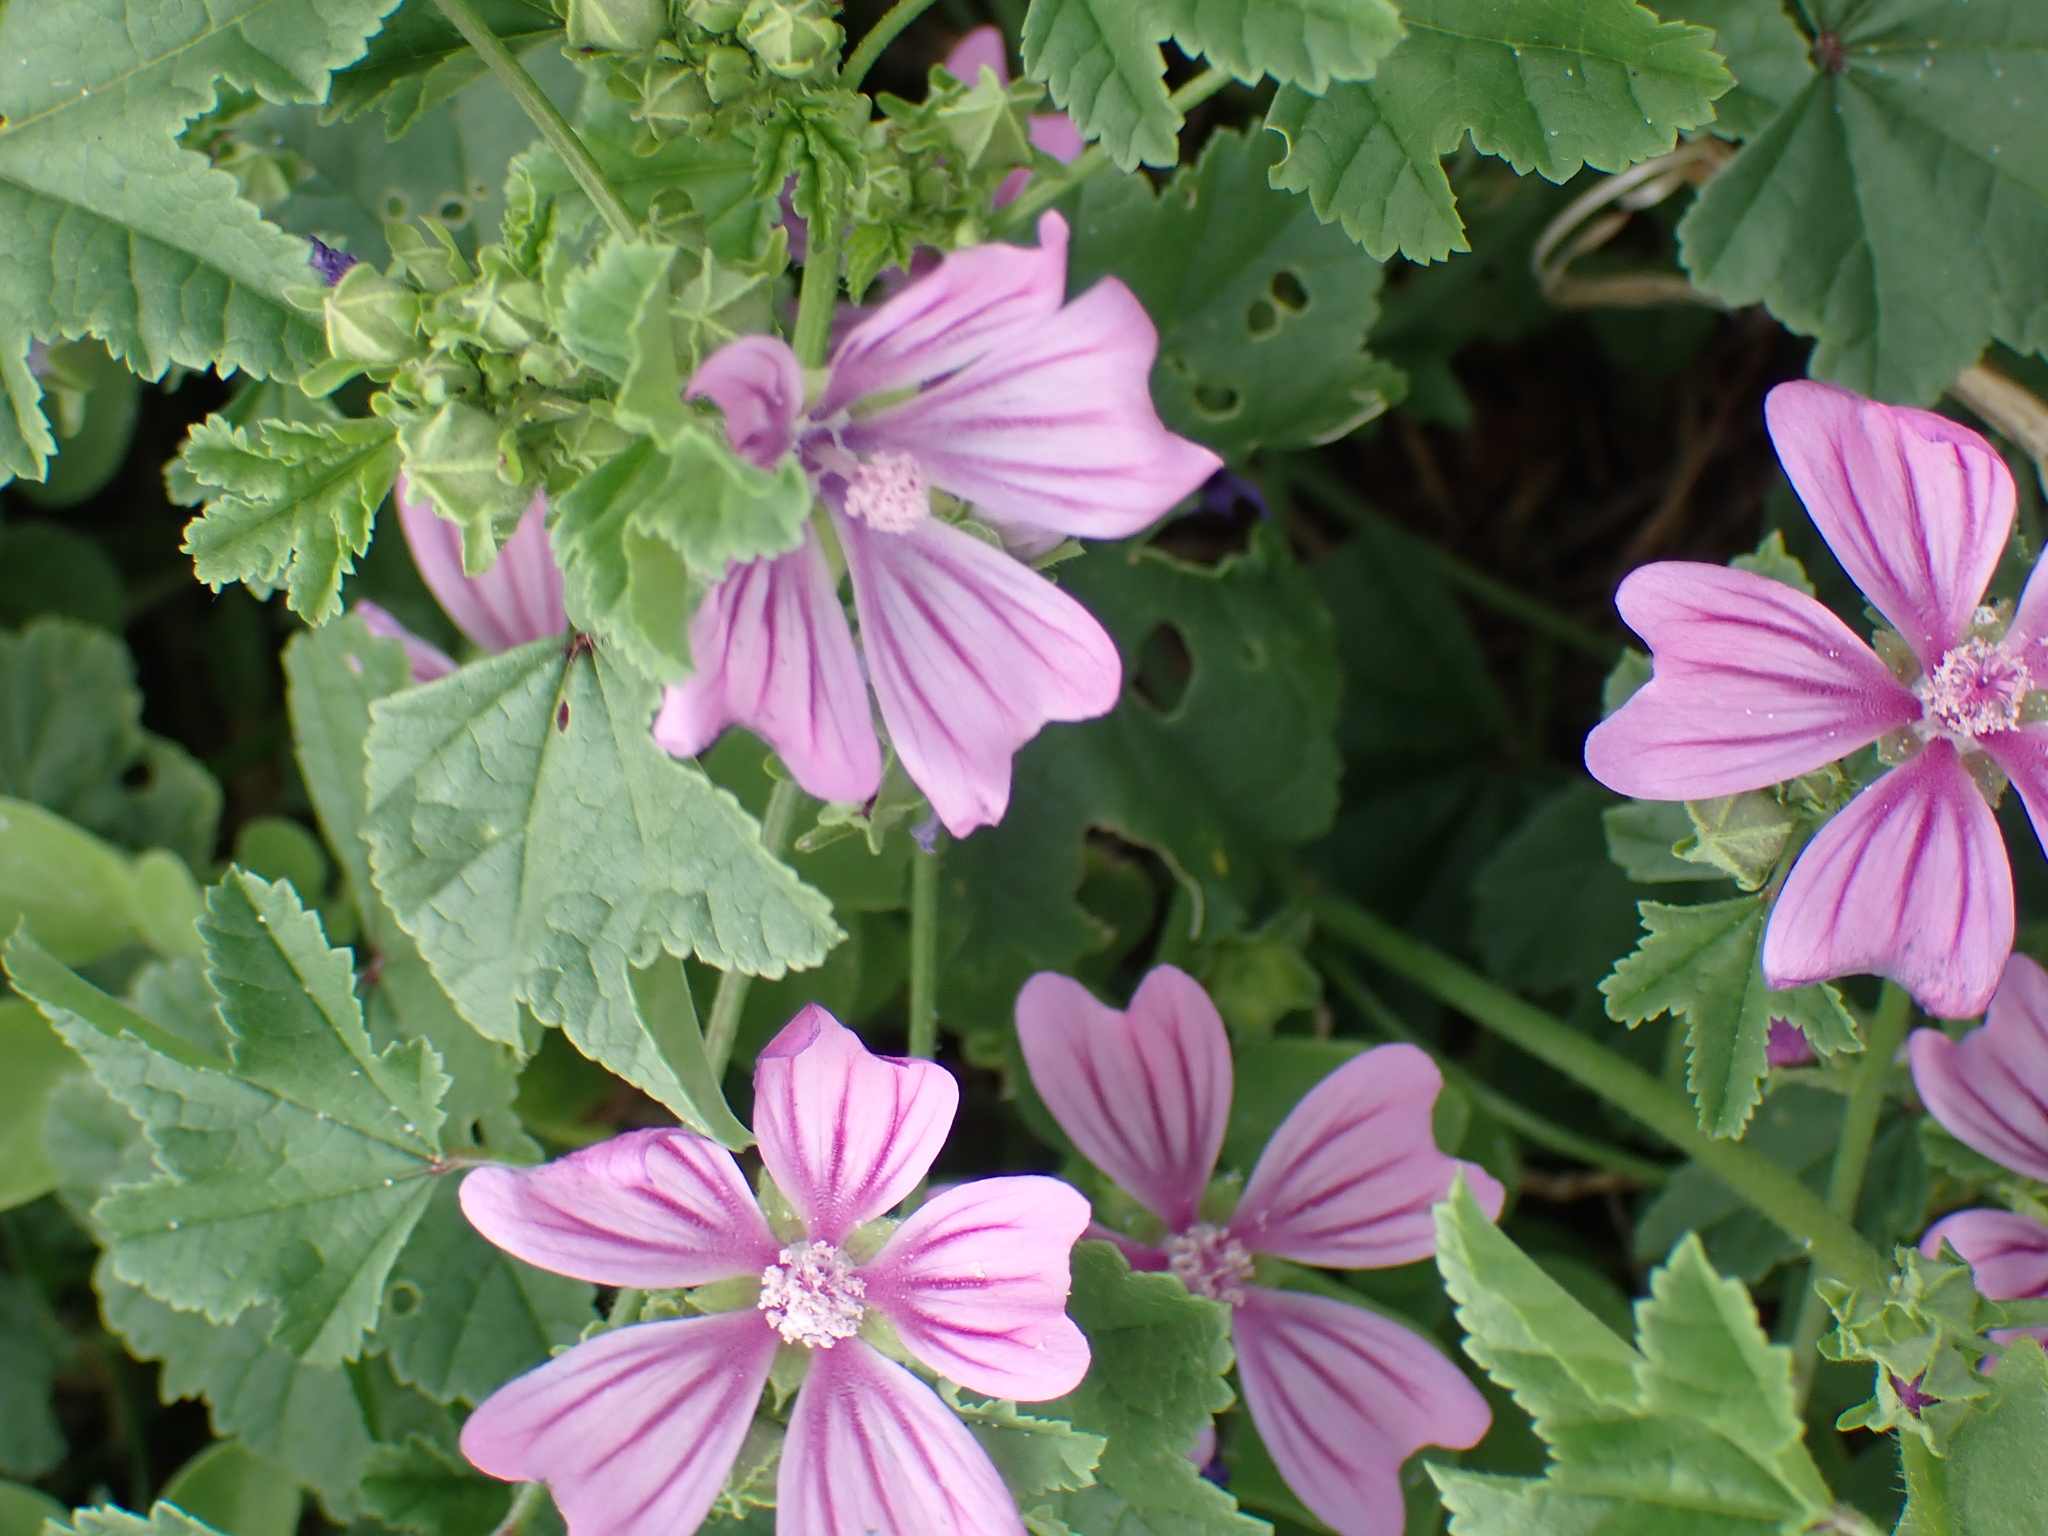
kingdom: Plantae
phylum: Tracheophyta
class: Magnoliopsida
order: Malvales
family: Malvaceae
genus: Malva
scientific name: Malva sylvestris
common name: Common mallow
